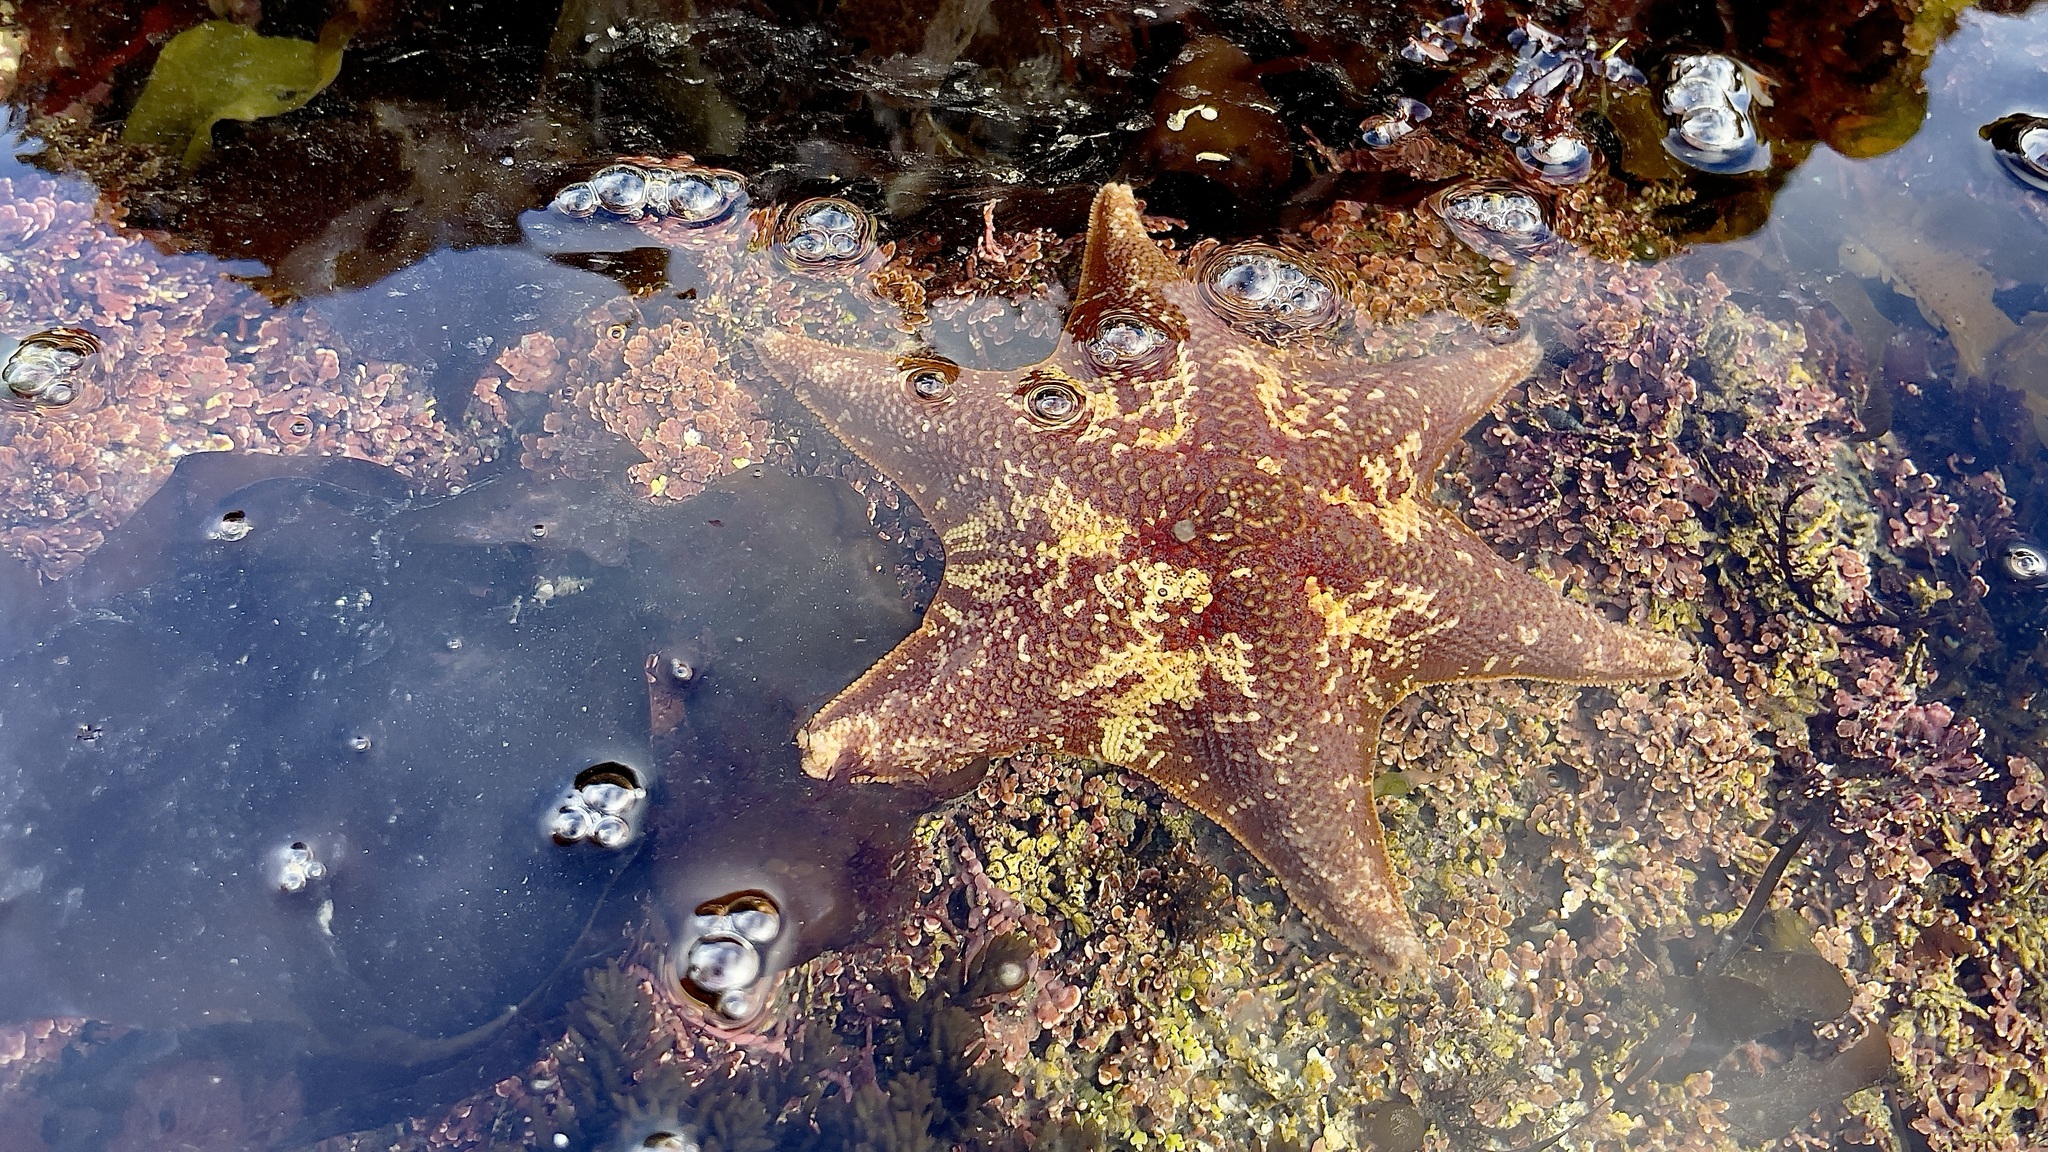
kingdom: Animalia
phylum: Echinodermata
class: Asteroidea
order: Valvatida
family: Asterinidae
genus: Patiria
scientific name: Patiria miniata
